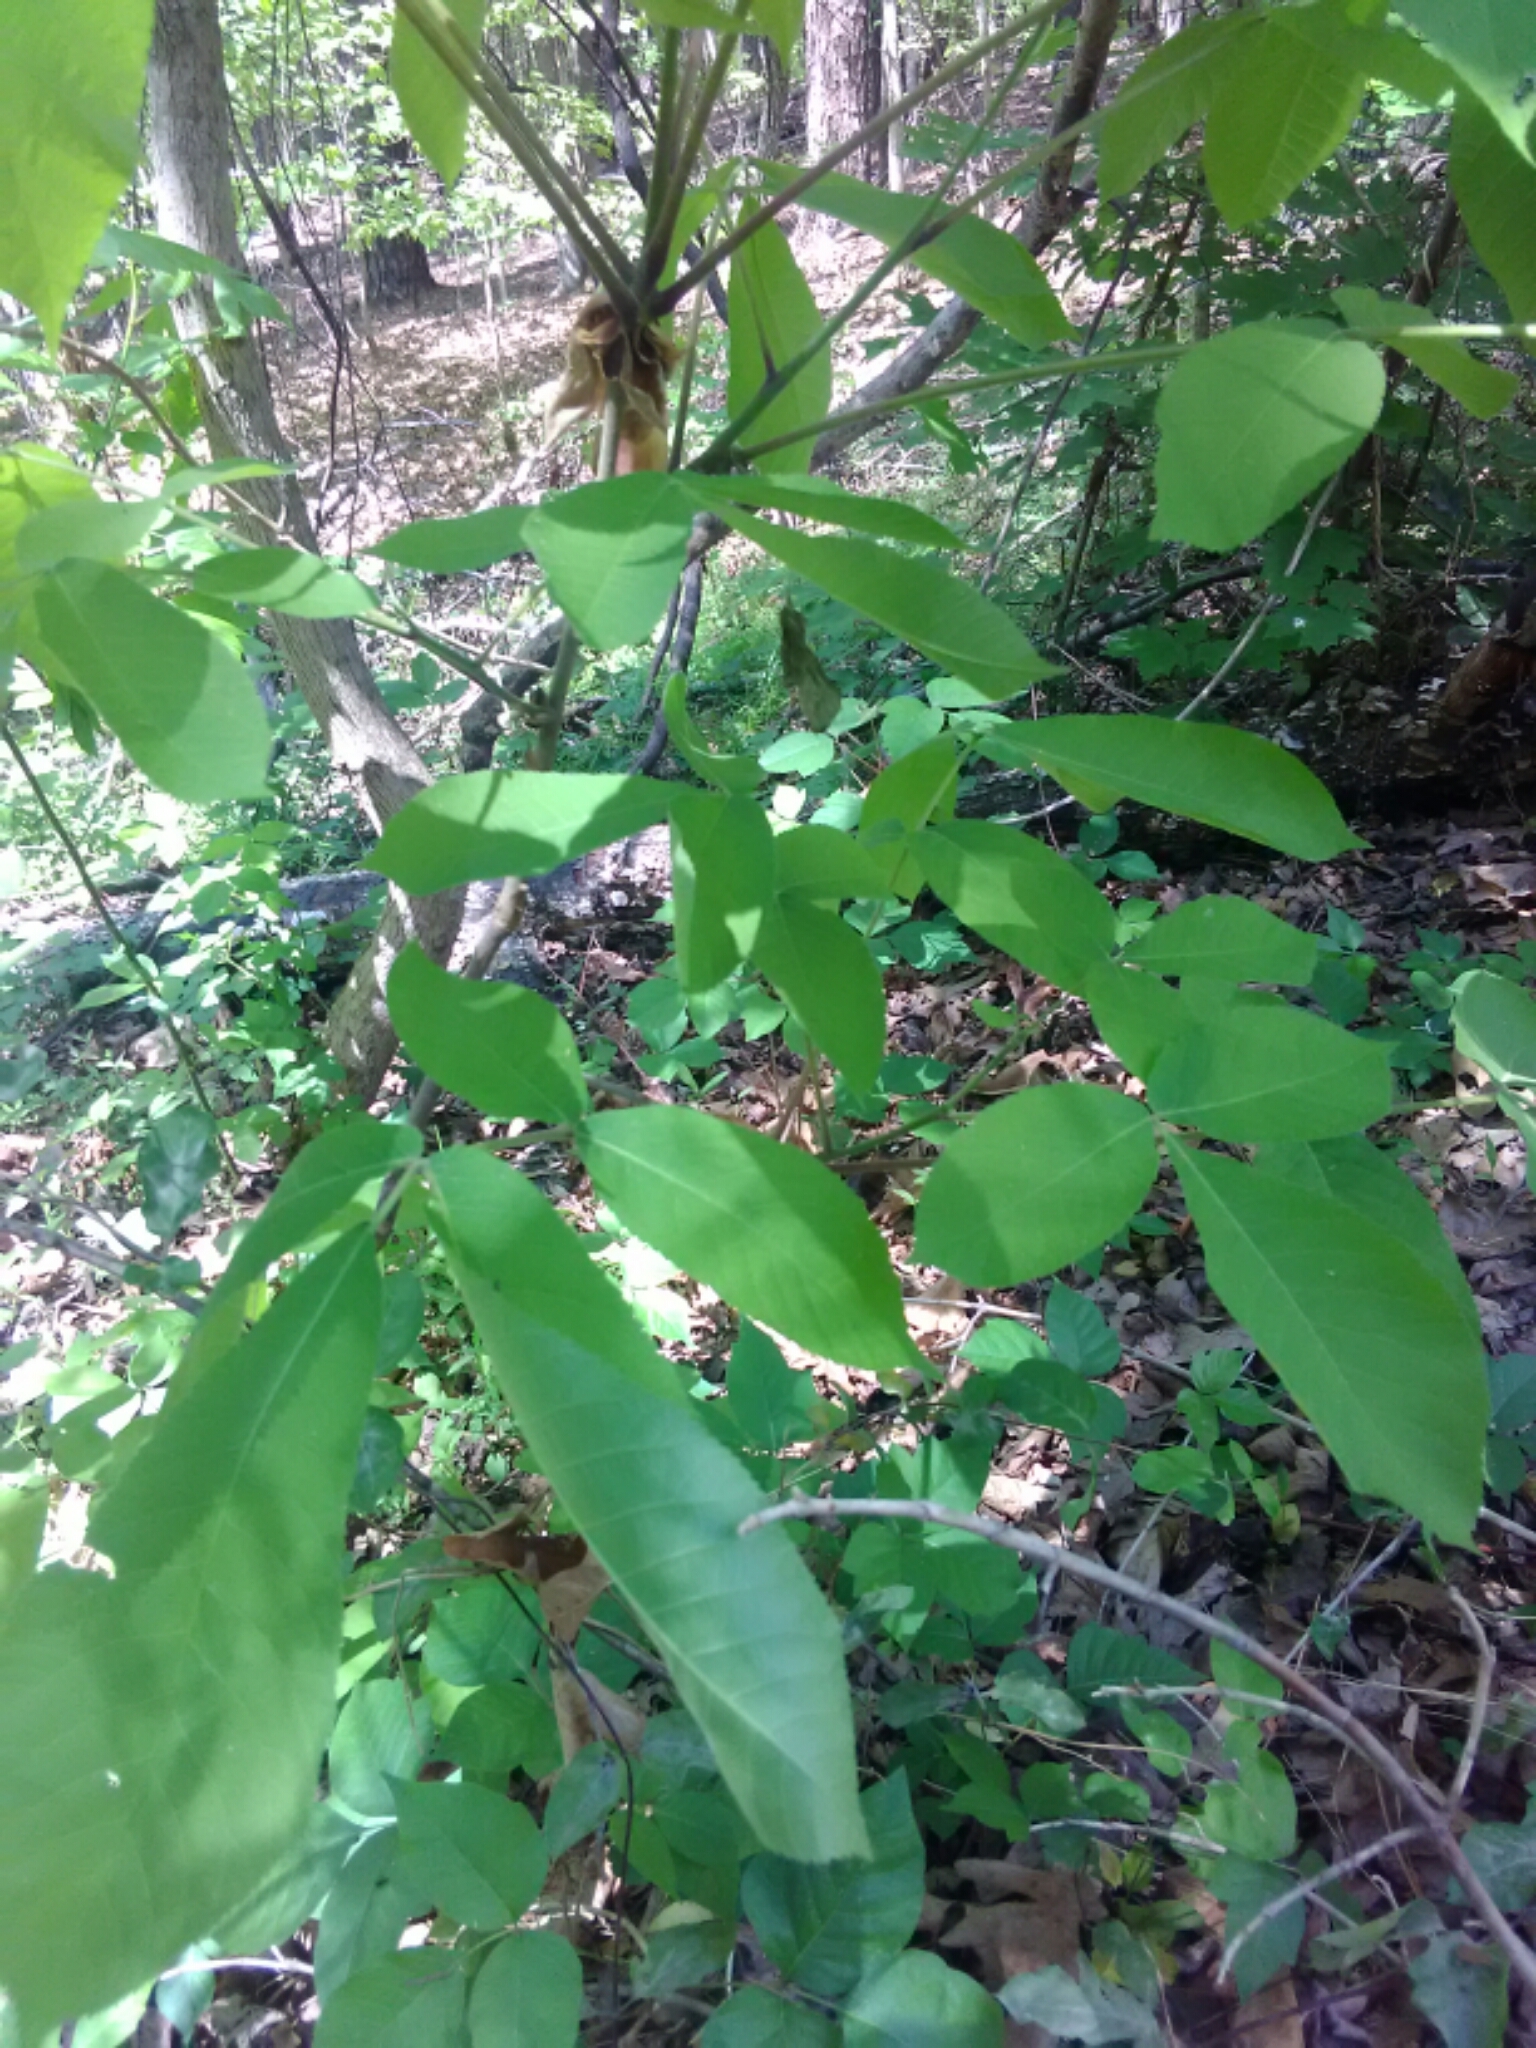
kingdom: Plantae
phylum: Tracheophyta
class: Magnoliopsida
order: Fagales
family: Juglandaceae
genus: Carya
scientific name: Carya glabra
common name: Pignut hickory
